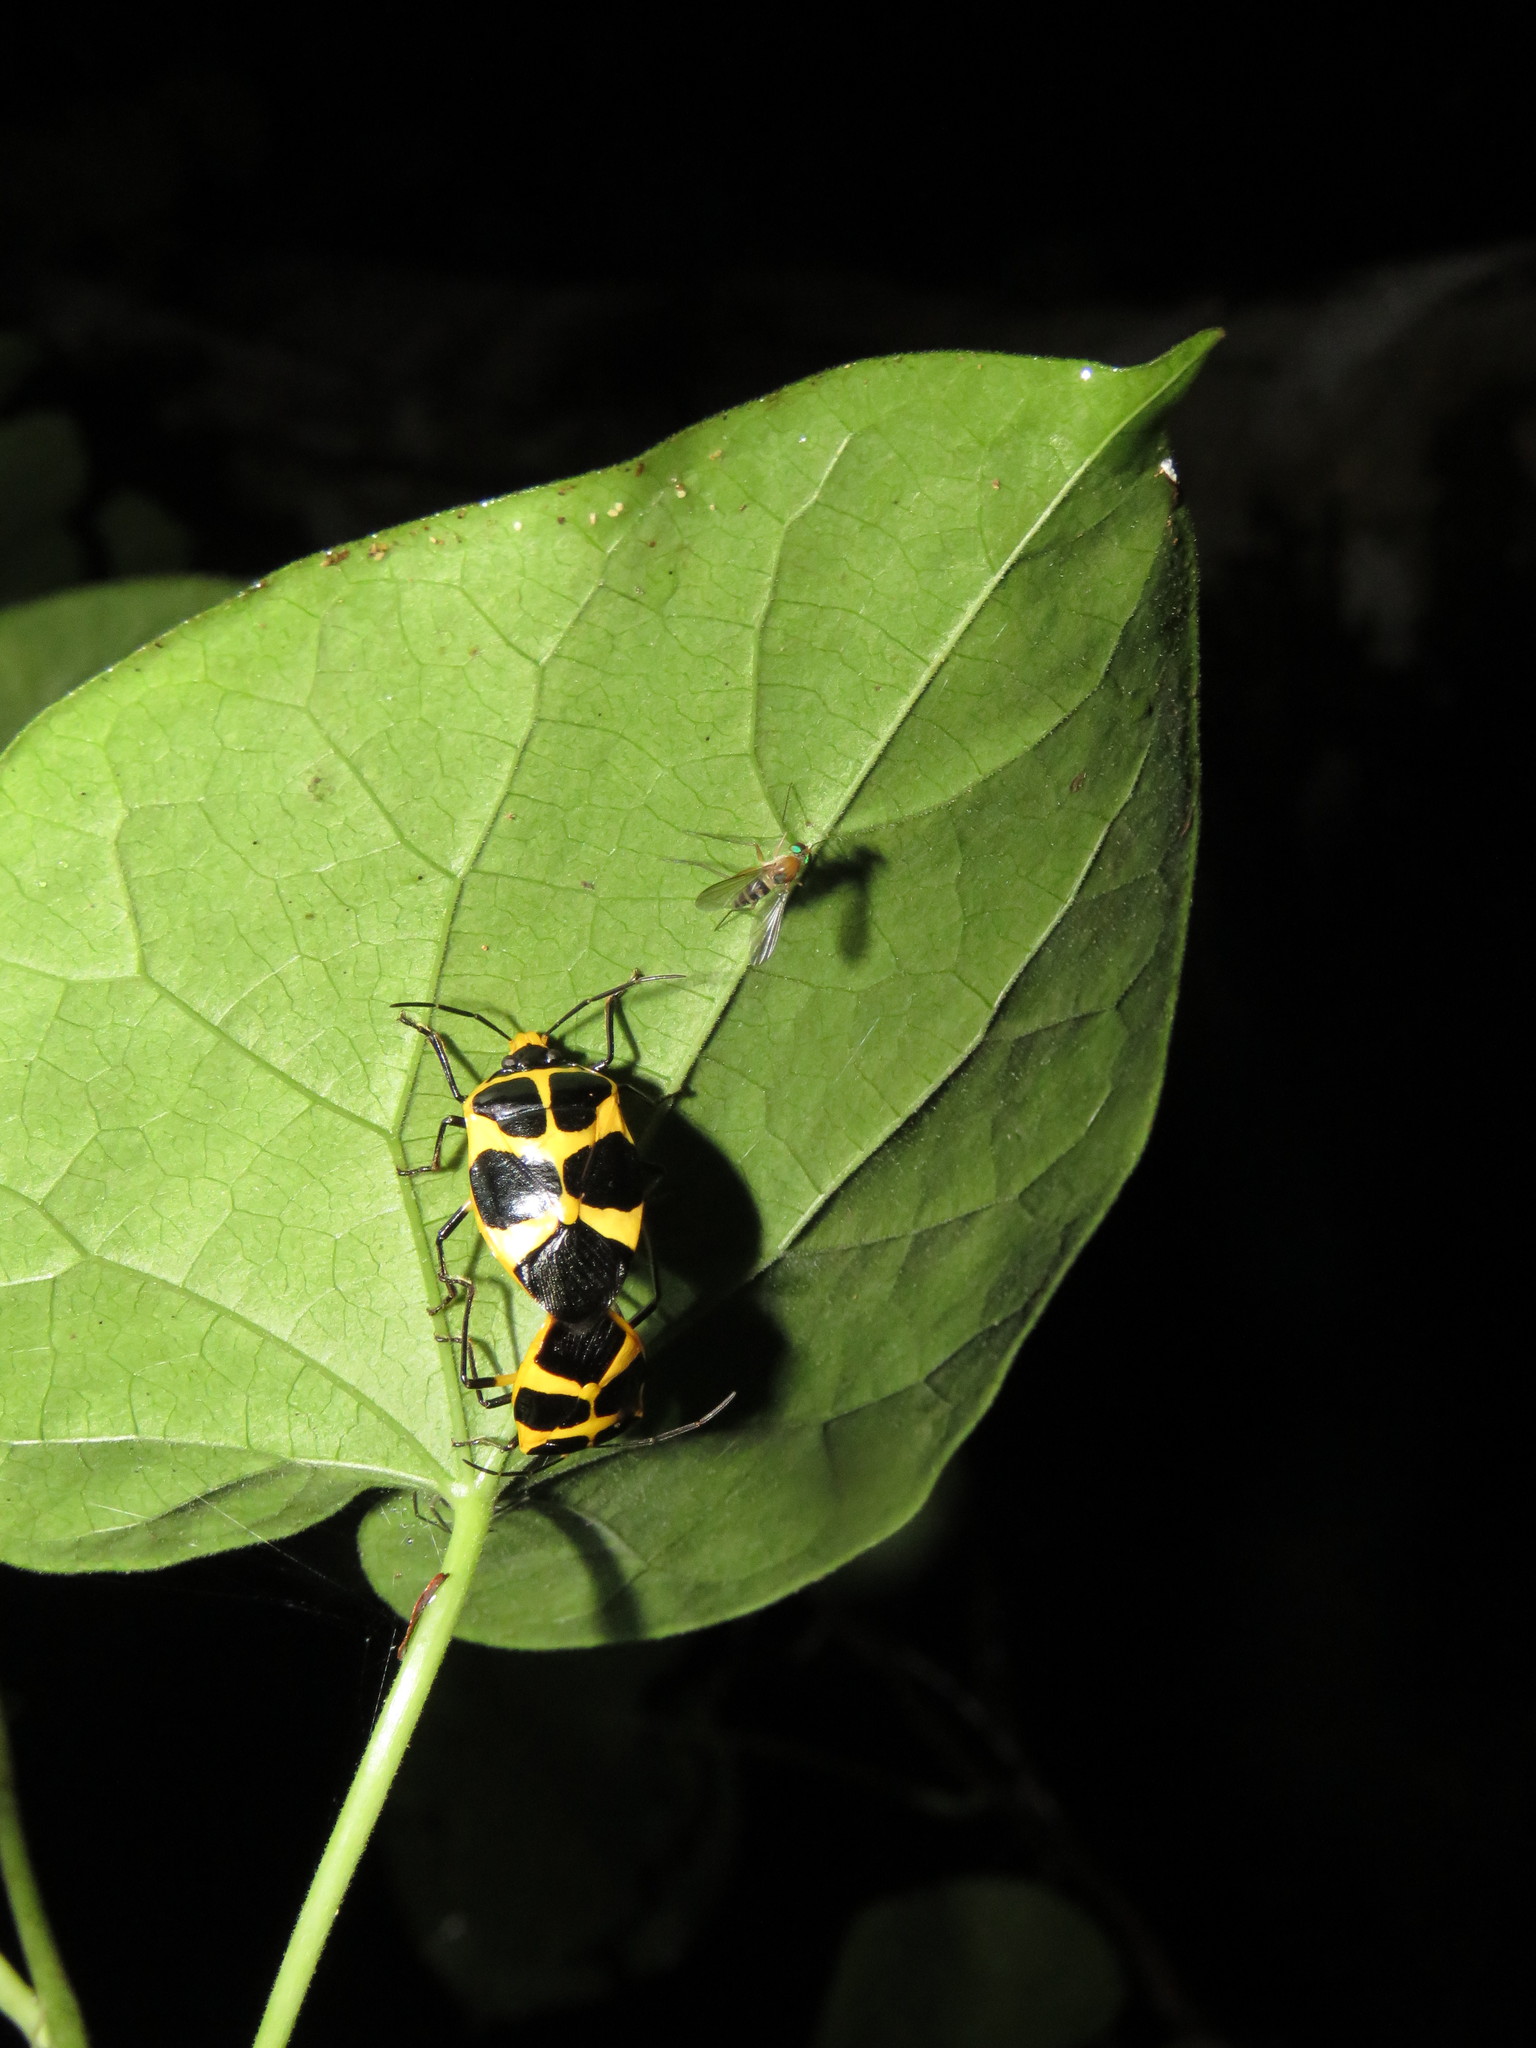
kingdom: Animalia
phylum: Arthropoda
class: Insecta
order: Hemiptera
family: Pentatomidae
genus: Arocera
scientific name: Arocera apta
